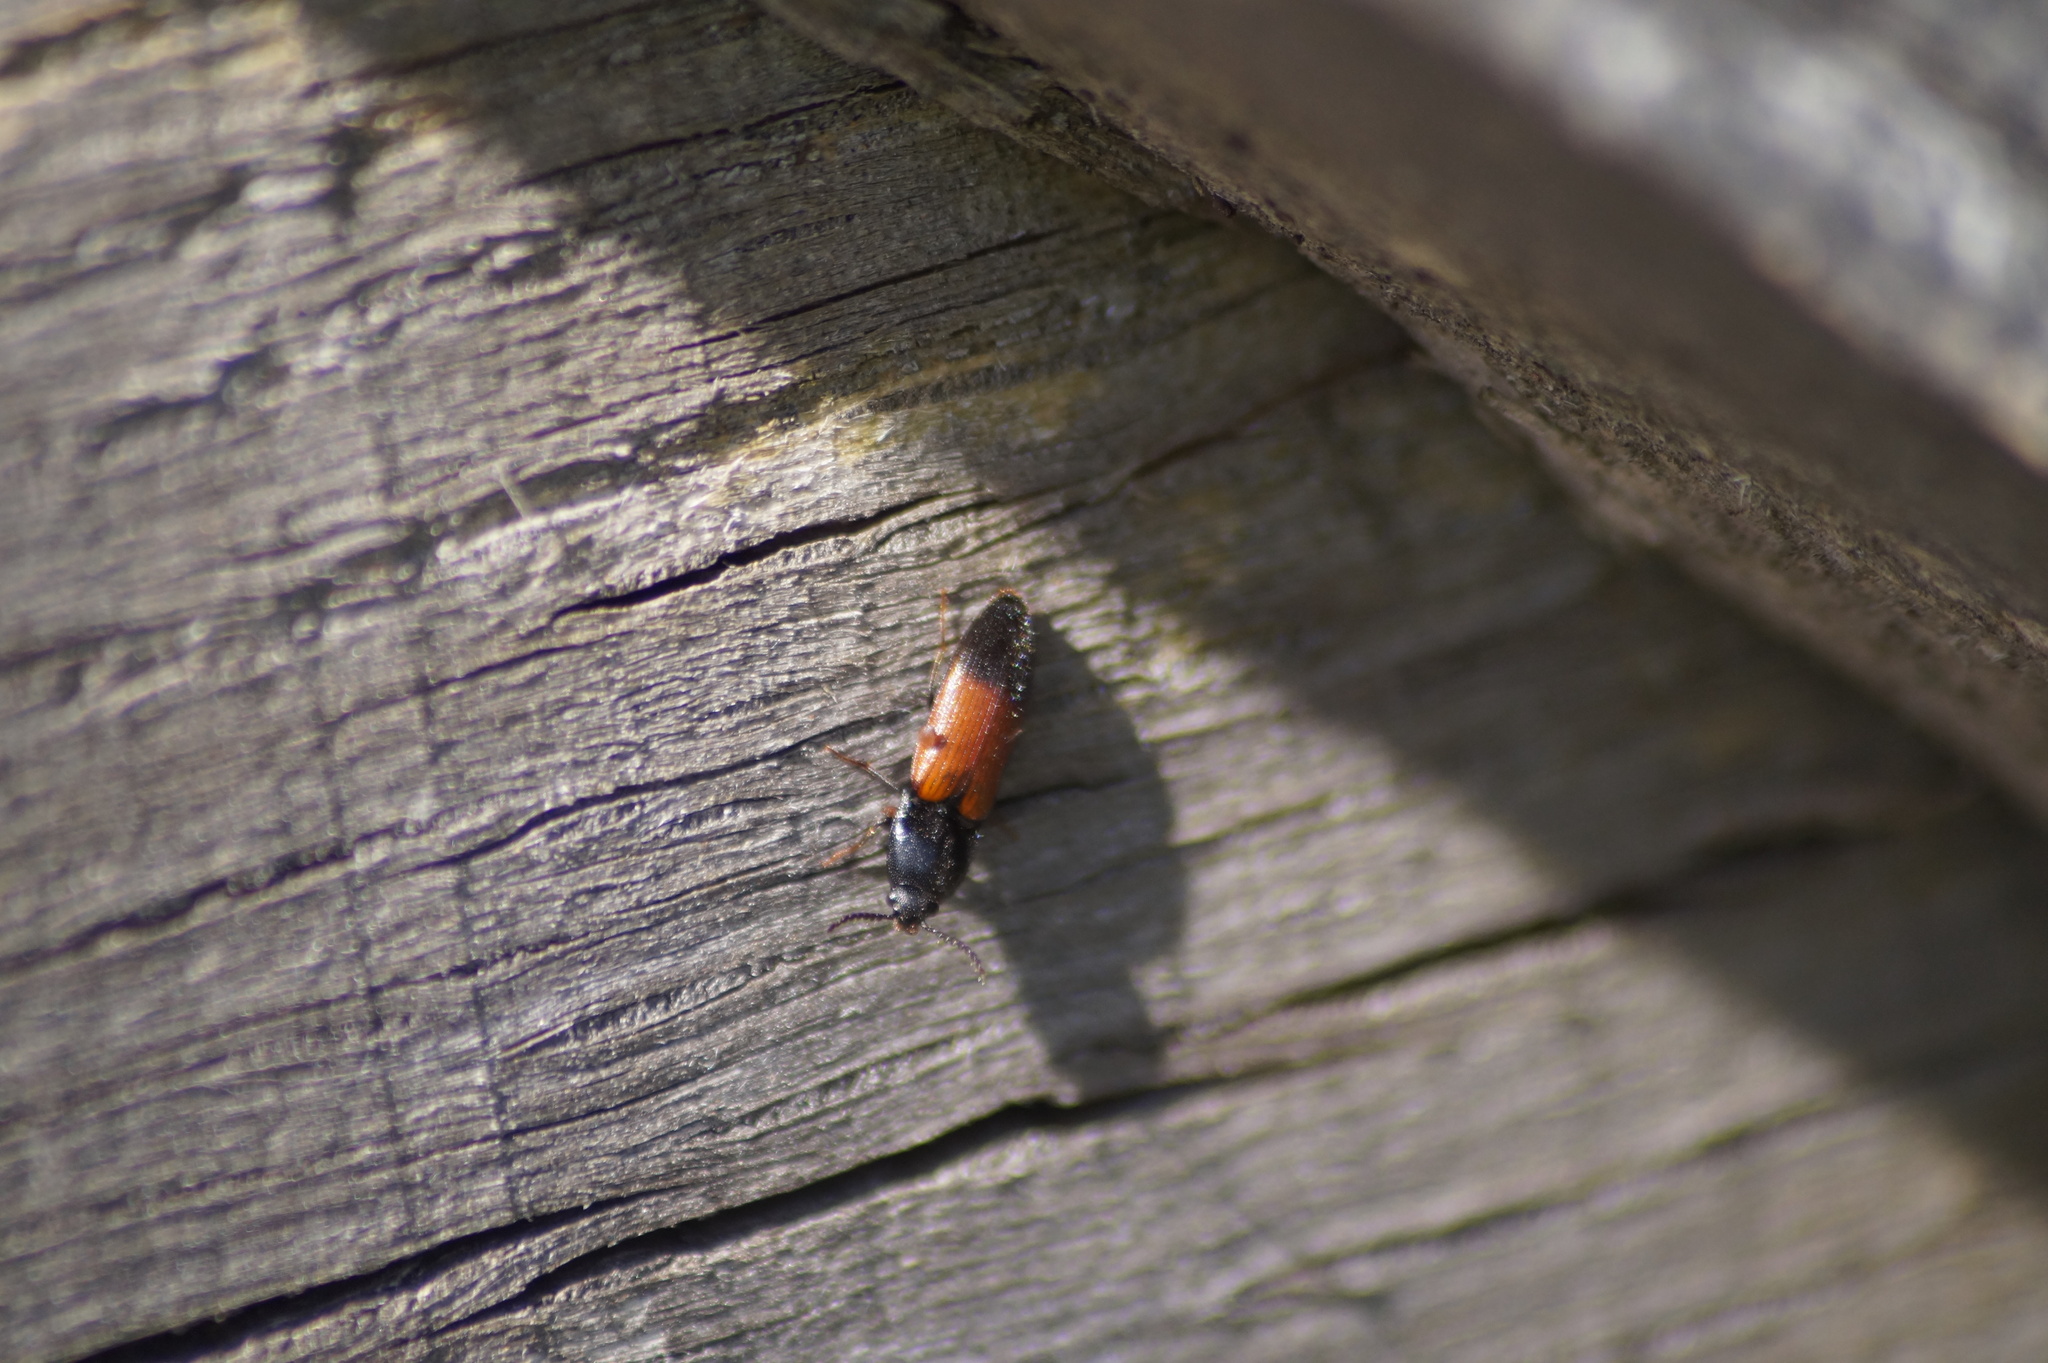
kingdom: Animalia
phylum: Arthropoda
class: Insecta
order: Coleoptera
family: Elateridae
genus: Ampedus
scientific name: Ampedus balteatus
